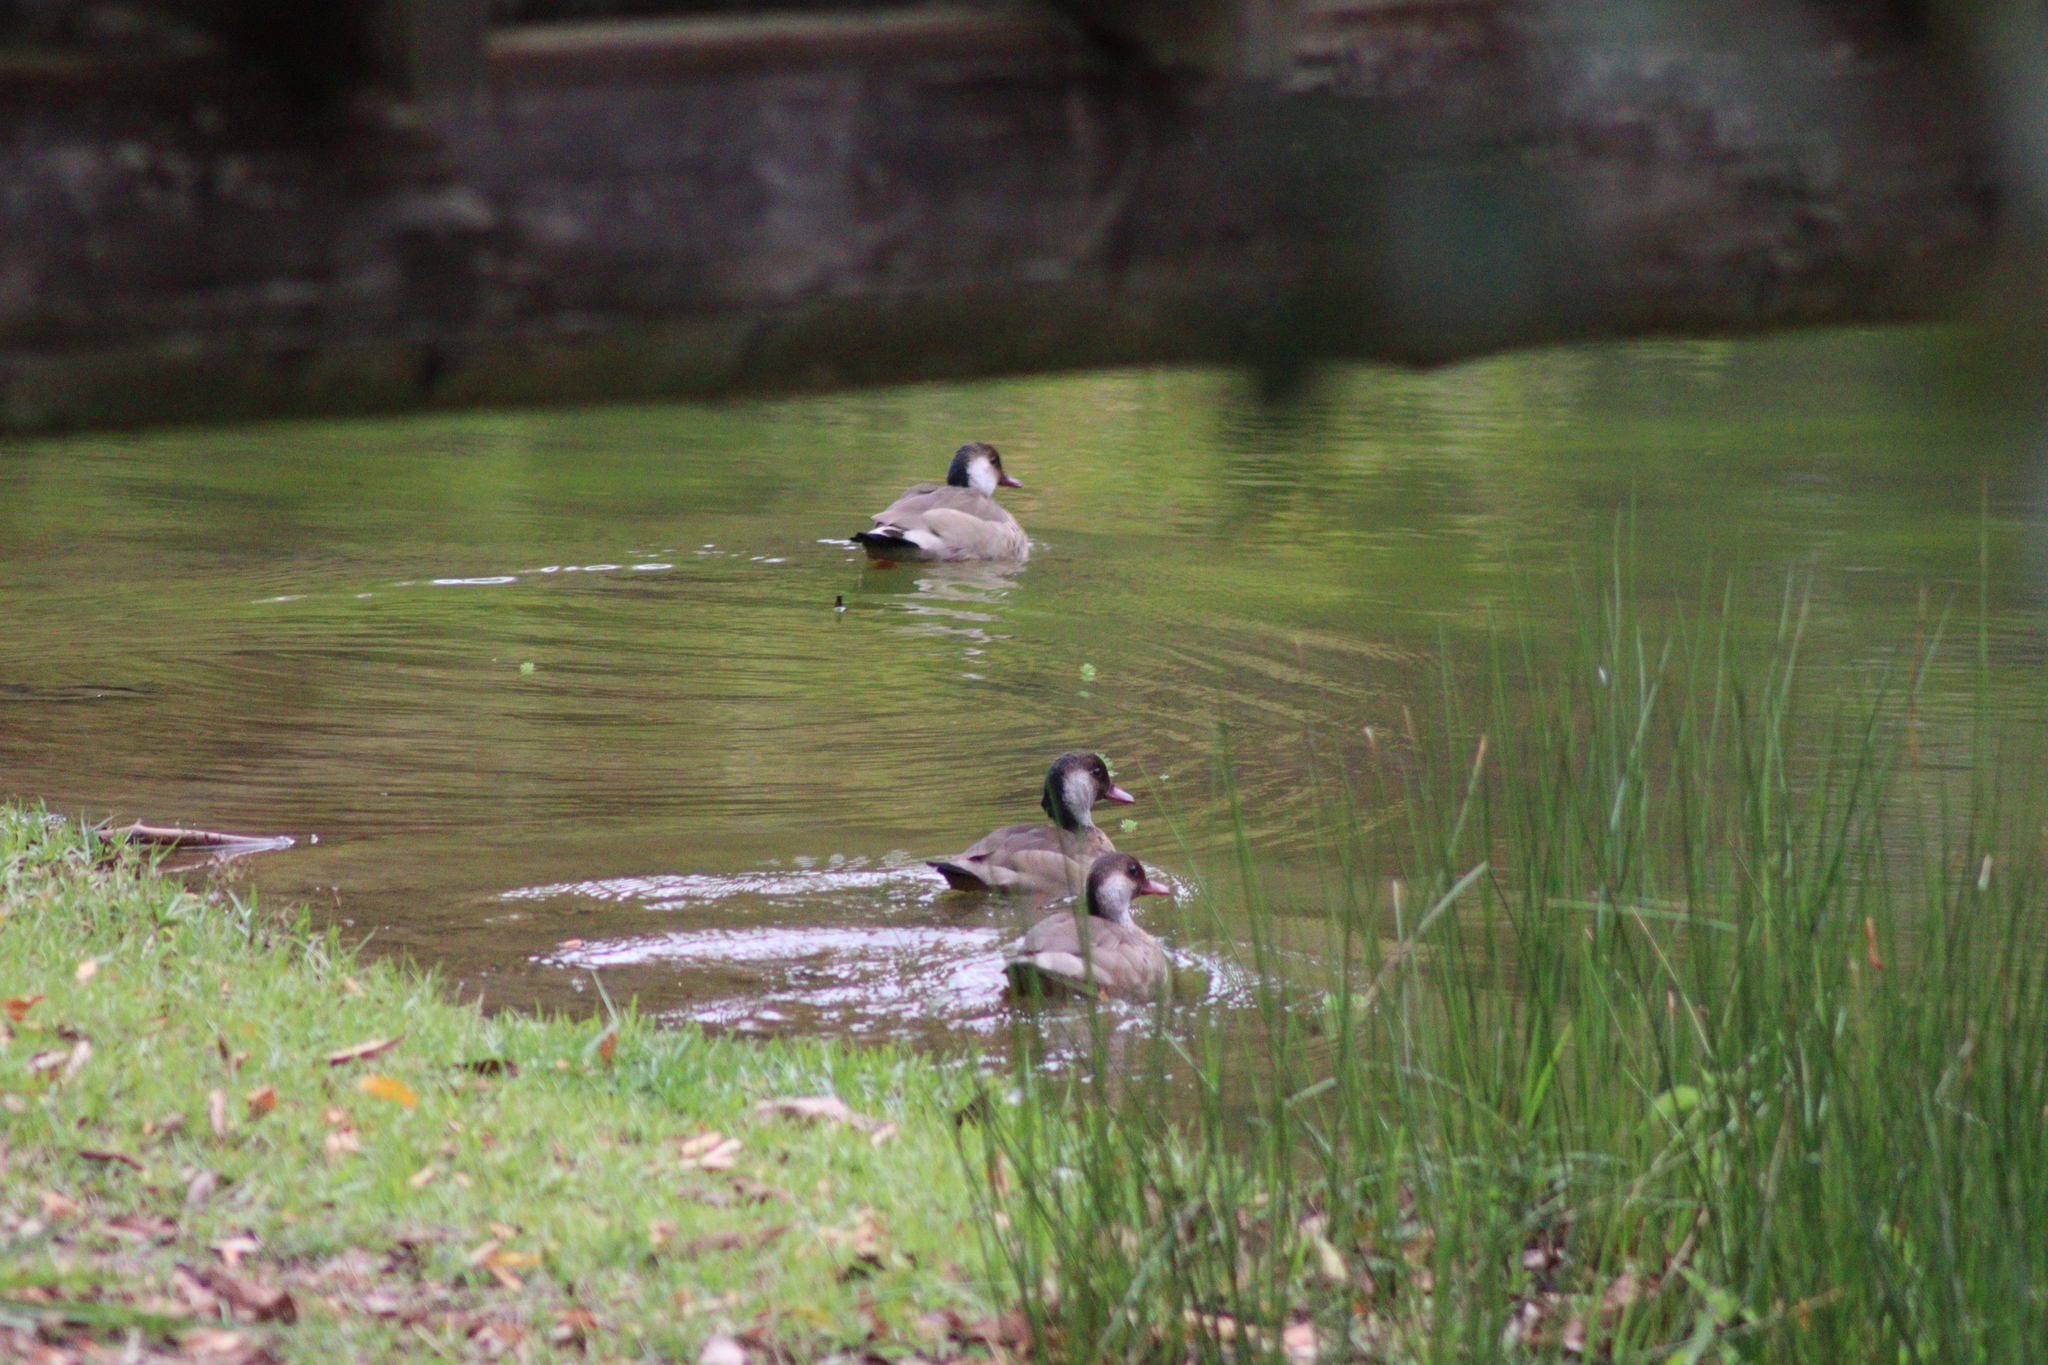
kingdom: Animalia
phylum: Chordata
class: Aves
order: Anseriformes
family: Anatidae
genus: Amazonetta
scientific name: Amazonetta brasiliensis
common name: Brazilian teal
